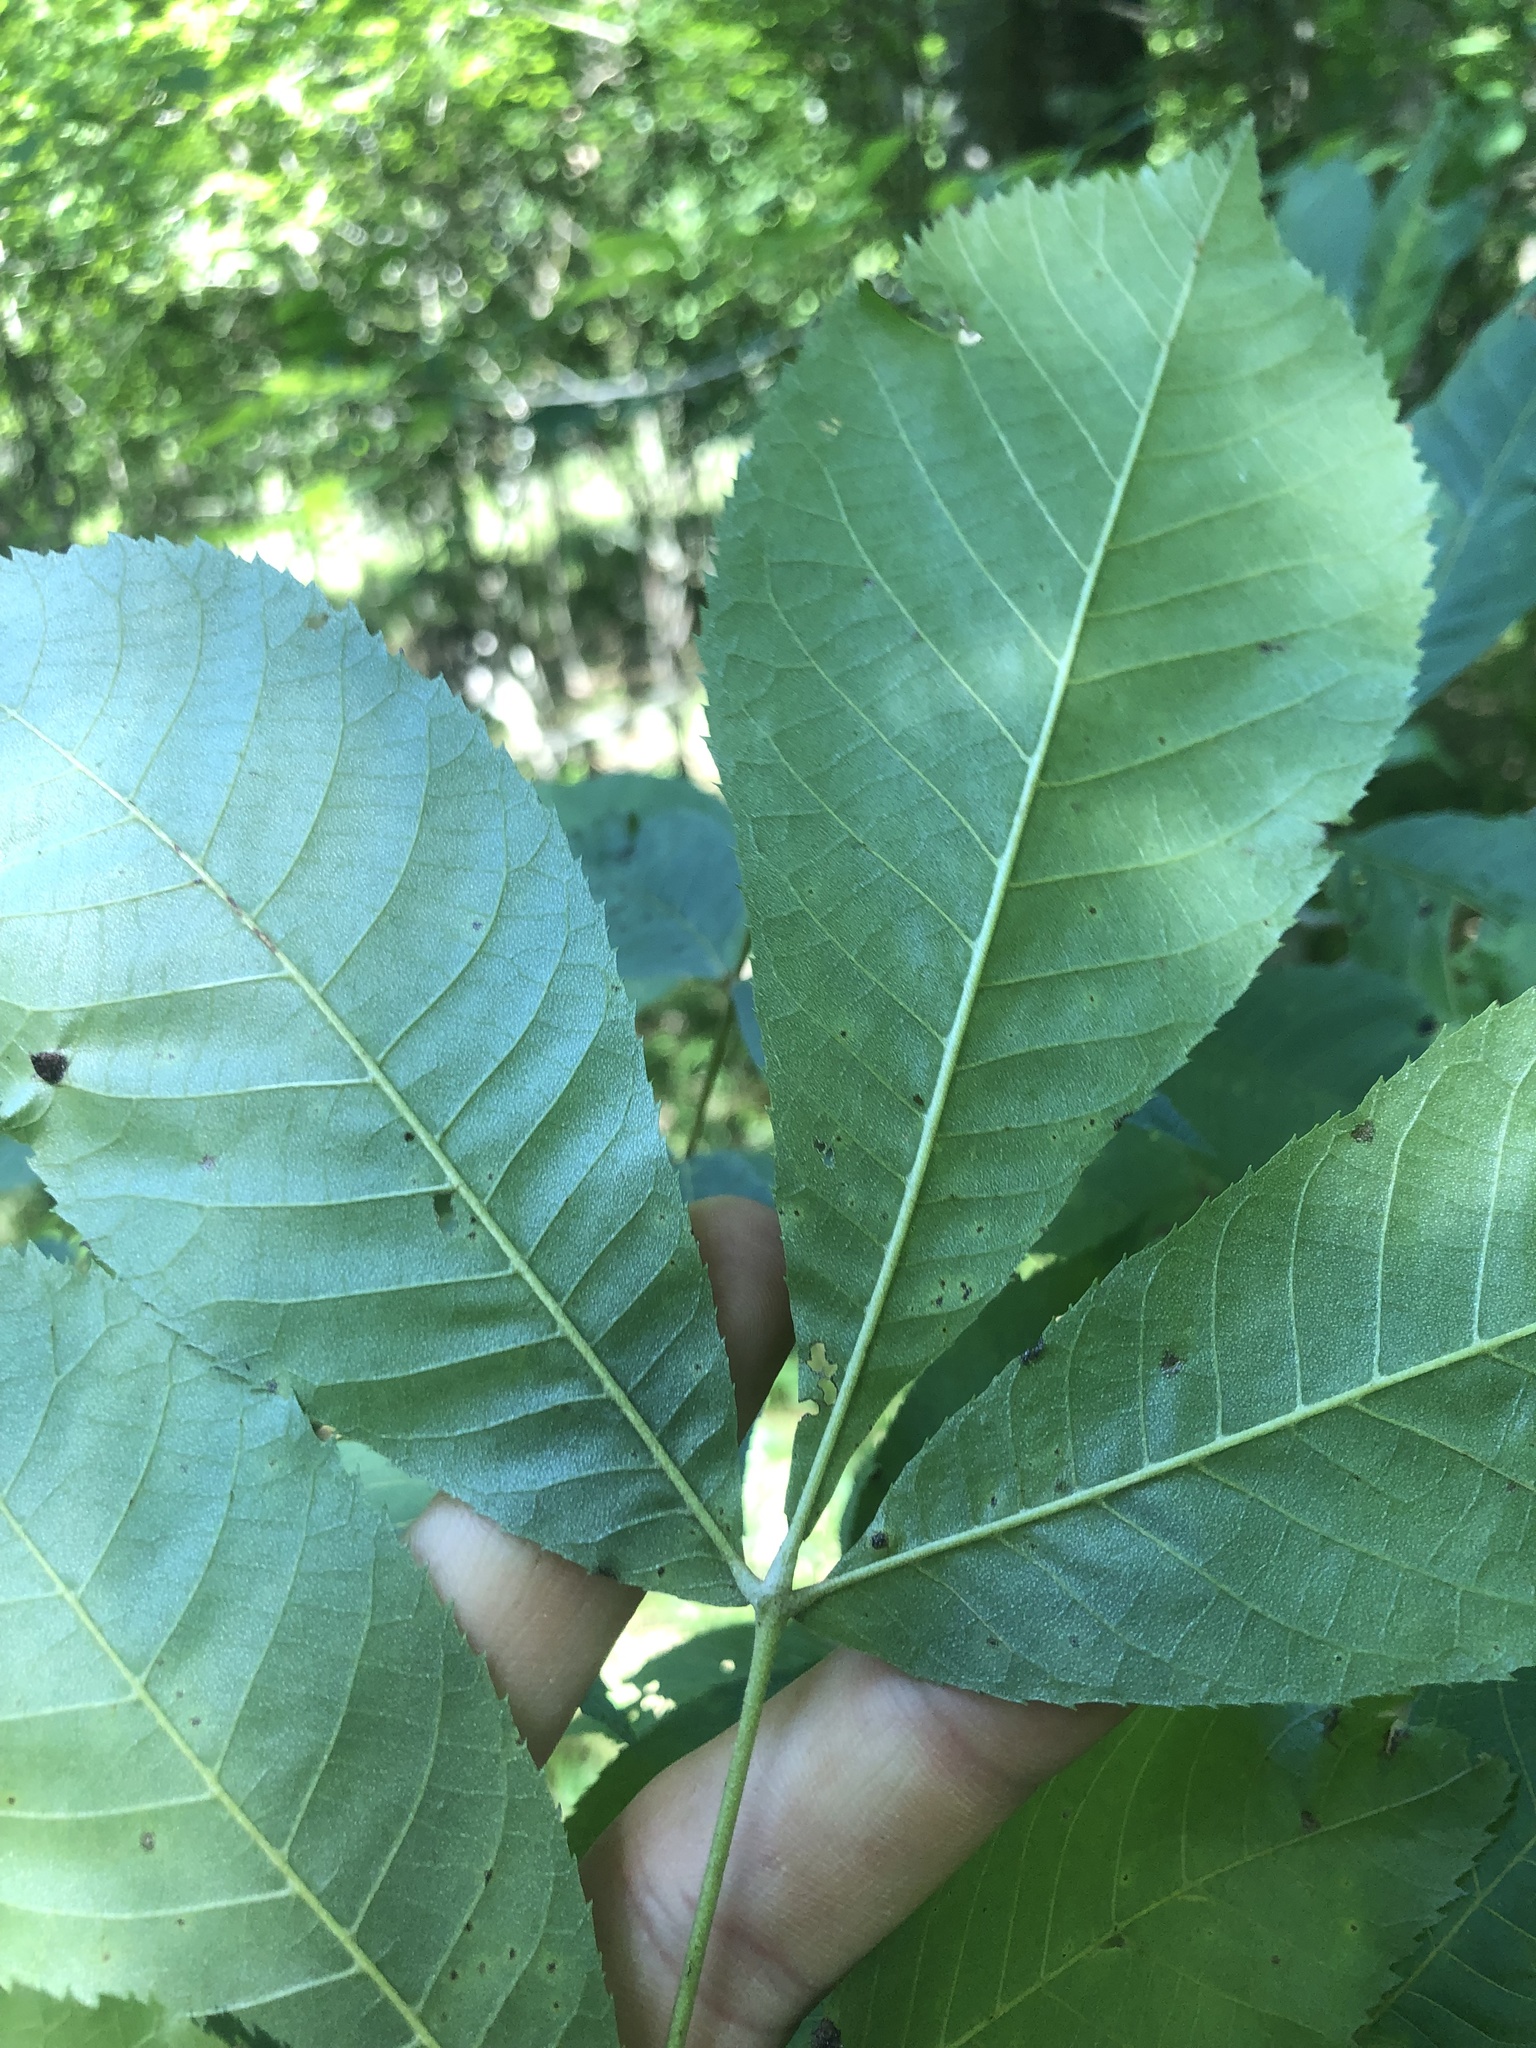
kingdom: Plantae
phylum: Tracheophyta
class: Magnoliopsida
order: Fagales
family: Juglandaceae
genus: Carya
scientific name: Carya myristiciformis
